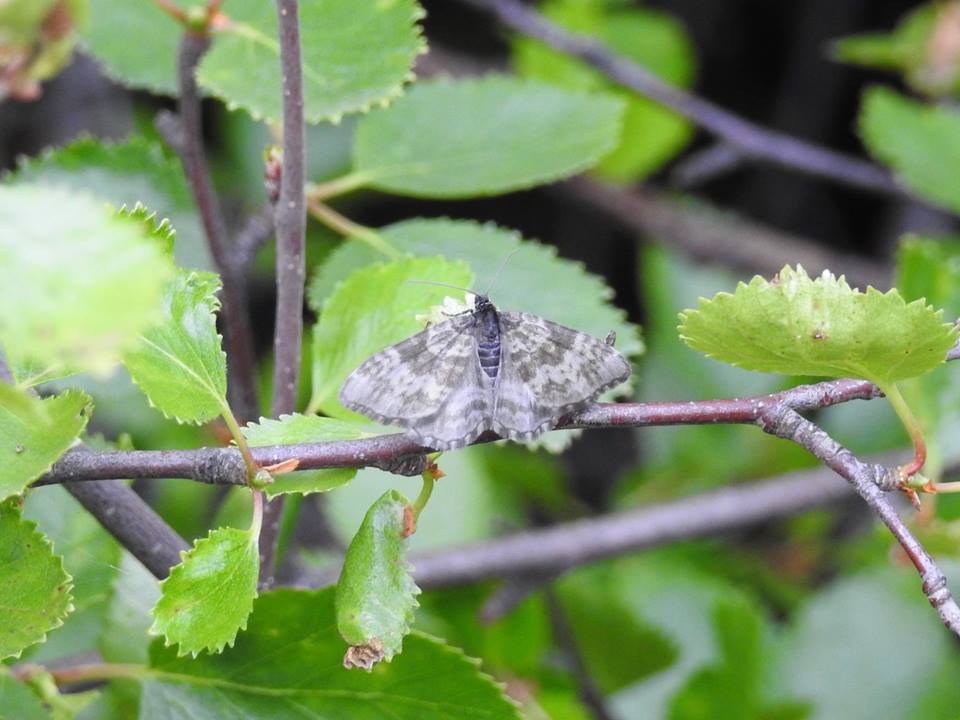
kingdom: Animalia
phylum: Arthropoda
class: Insecta
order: Lepidoptera
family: Geometridae
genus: Rheumaptera
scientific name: Rheumaptera hastata
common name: Argent & sable
